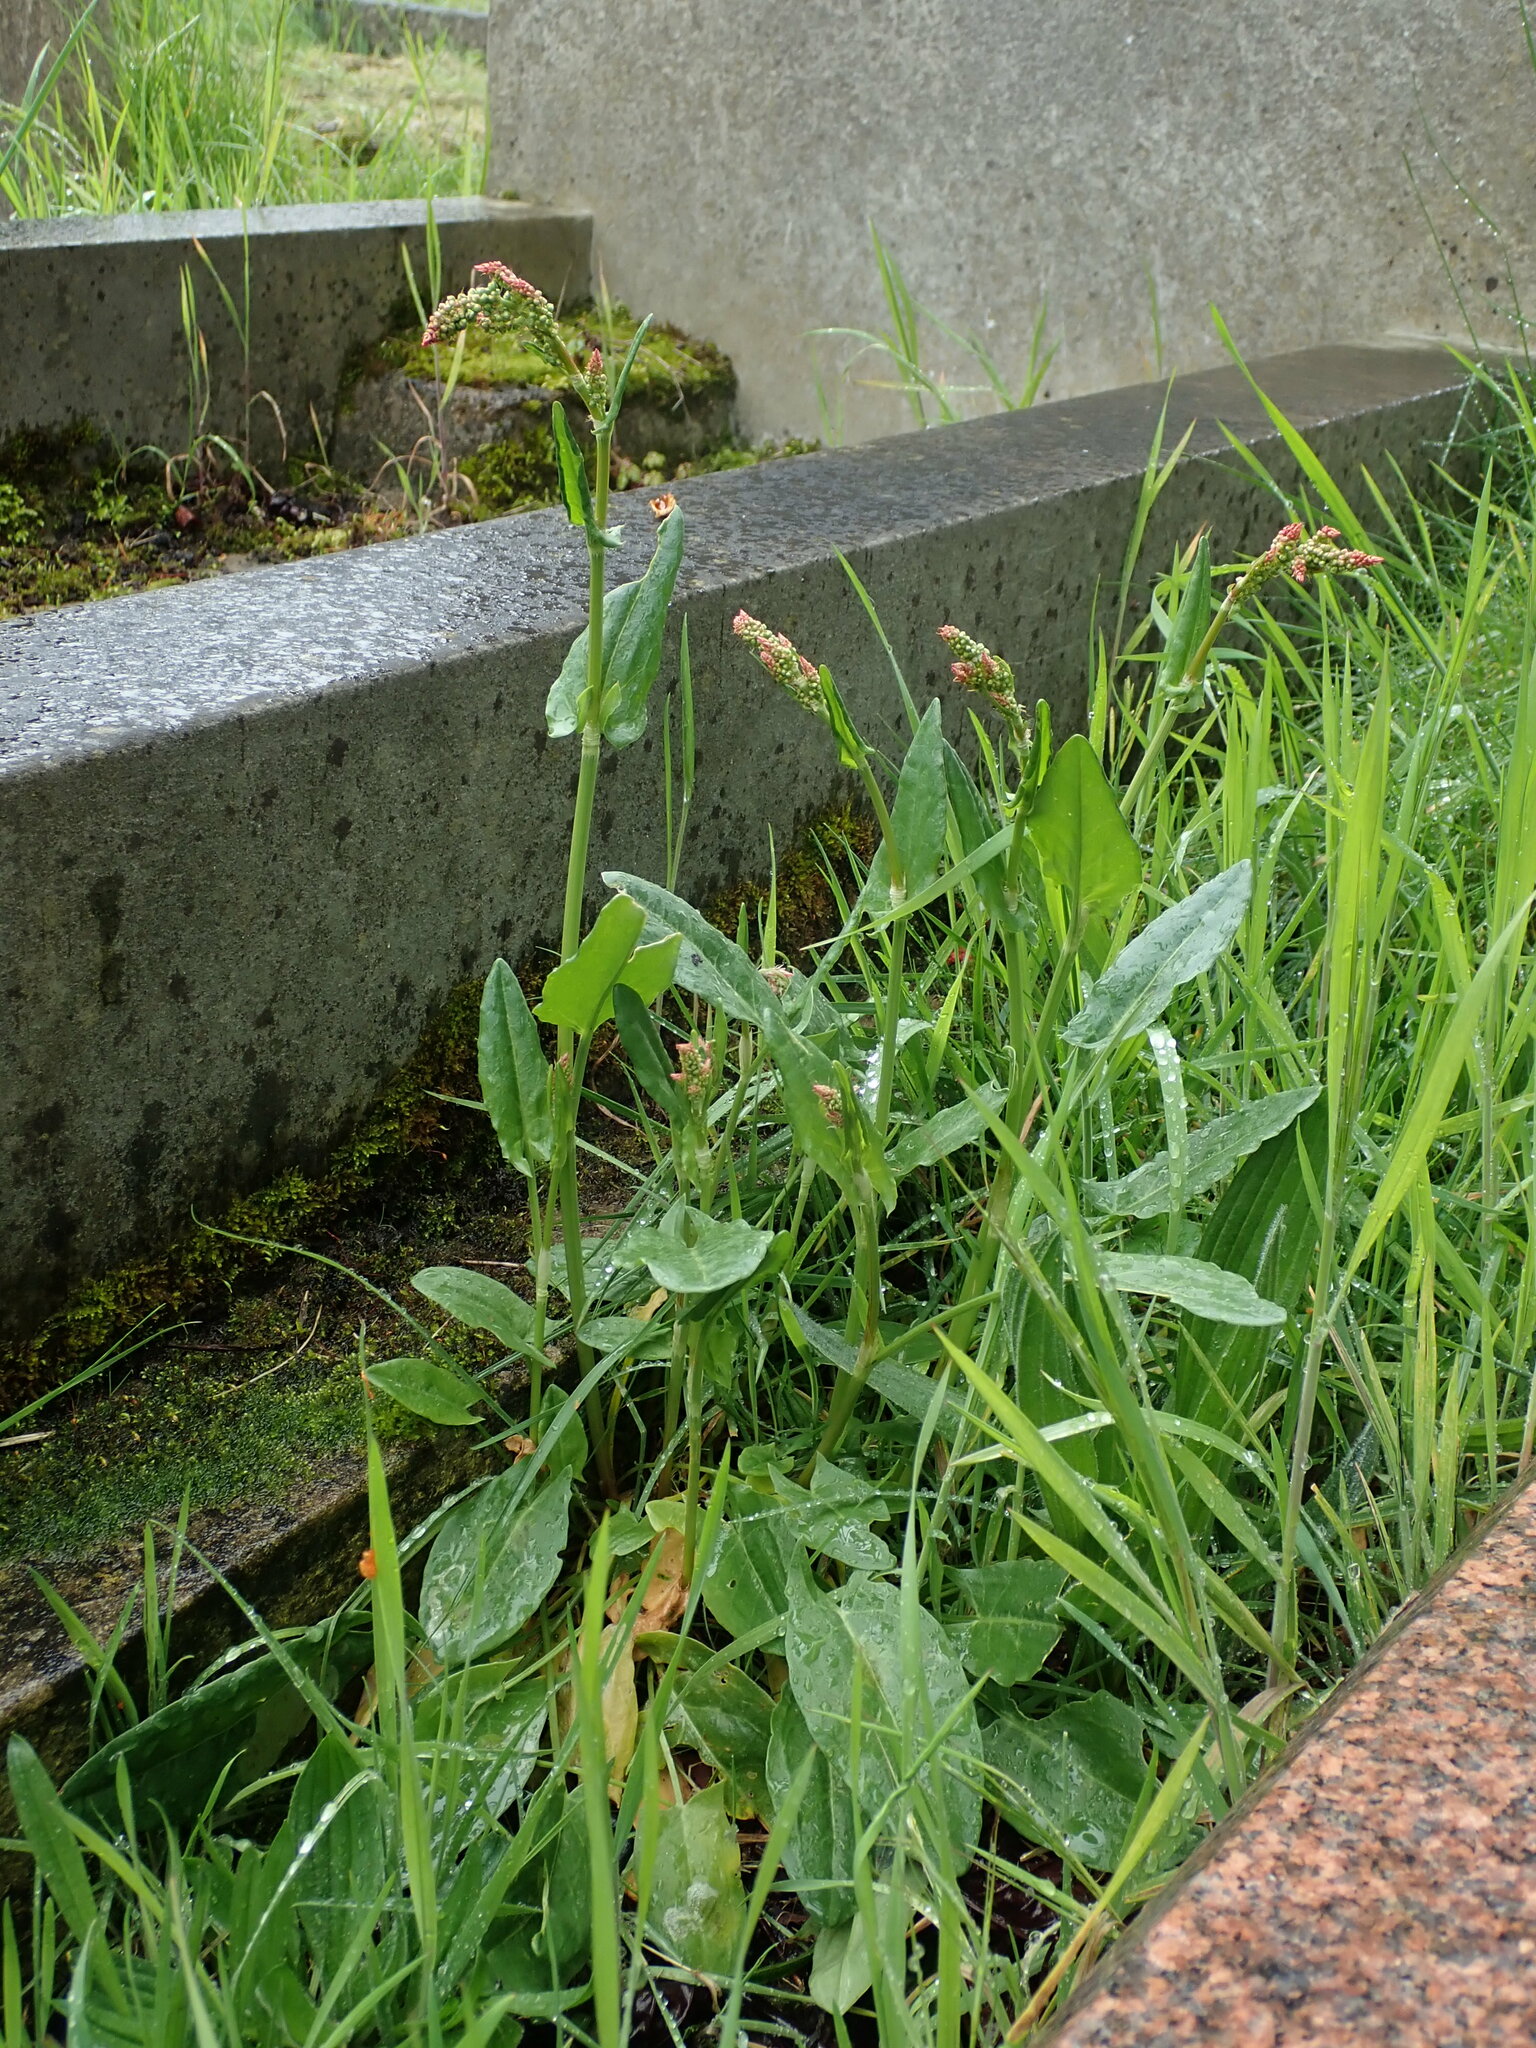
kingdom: Plantae
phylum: Tracheophyta
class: Magnoliopsida
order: Caryophyllales
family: Polygonaceae
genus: Rumex
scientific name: Rumex acetosa
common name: Garden sorrel
